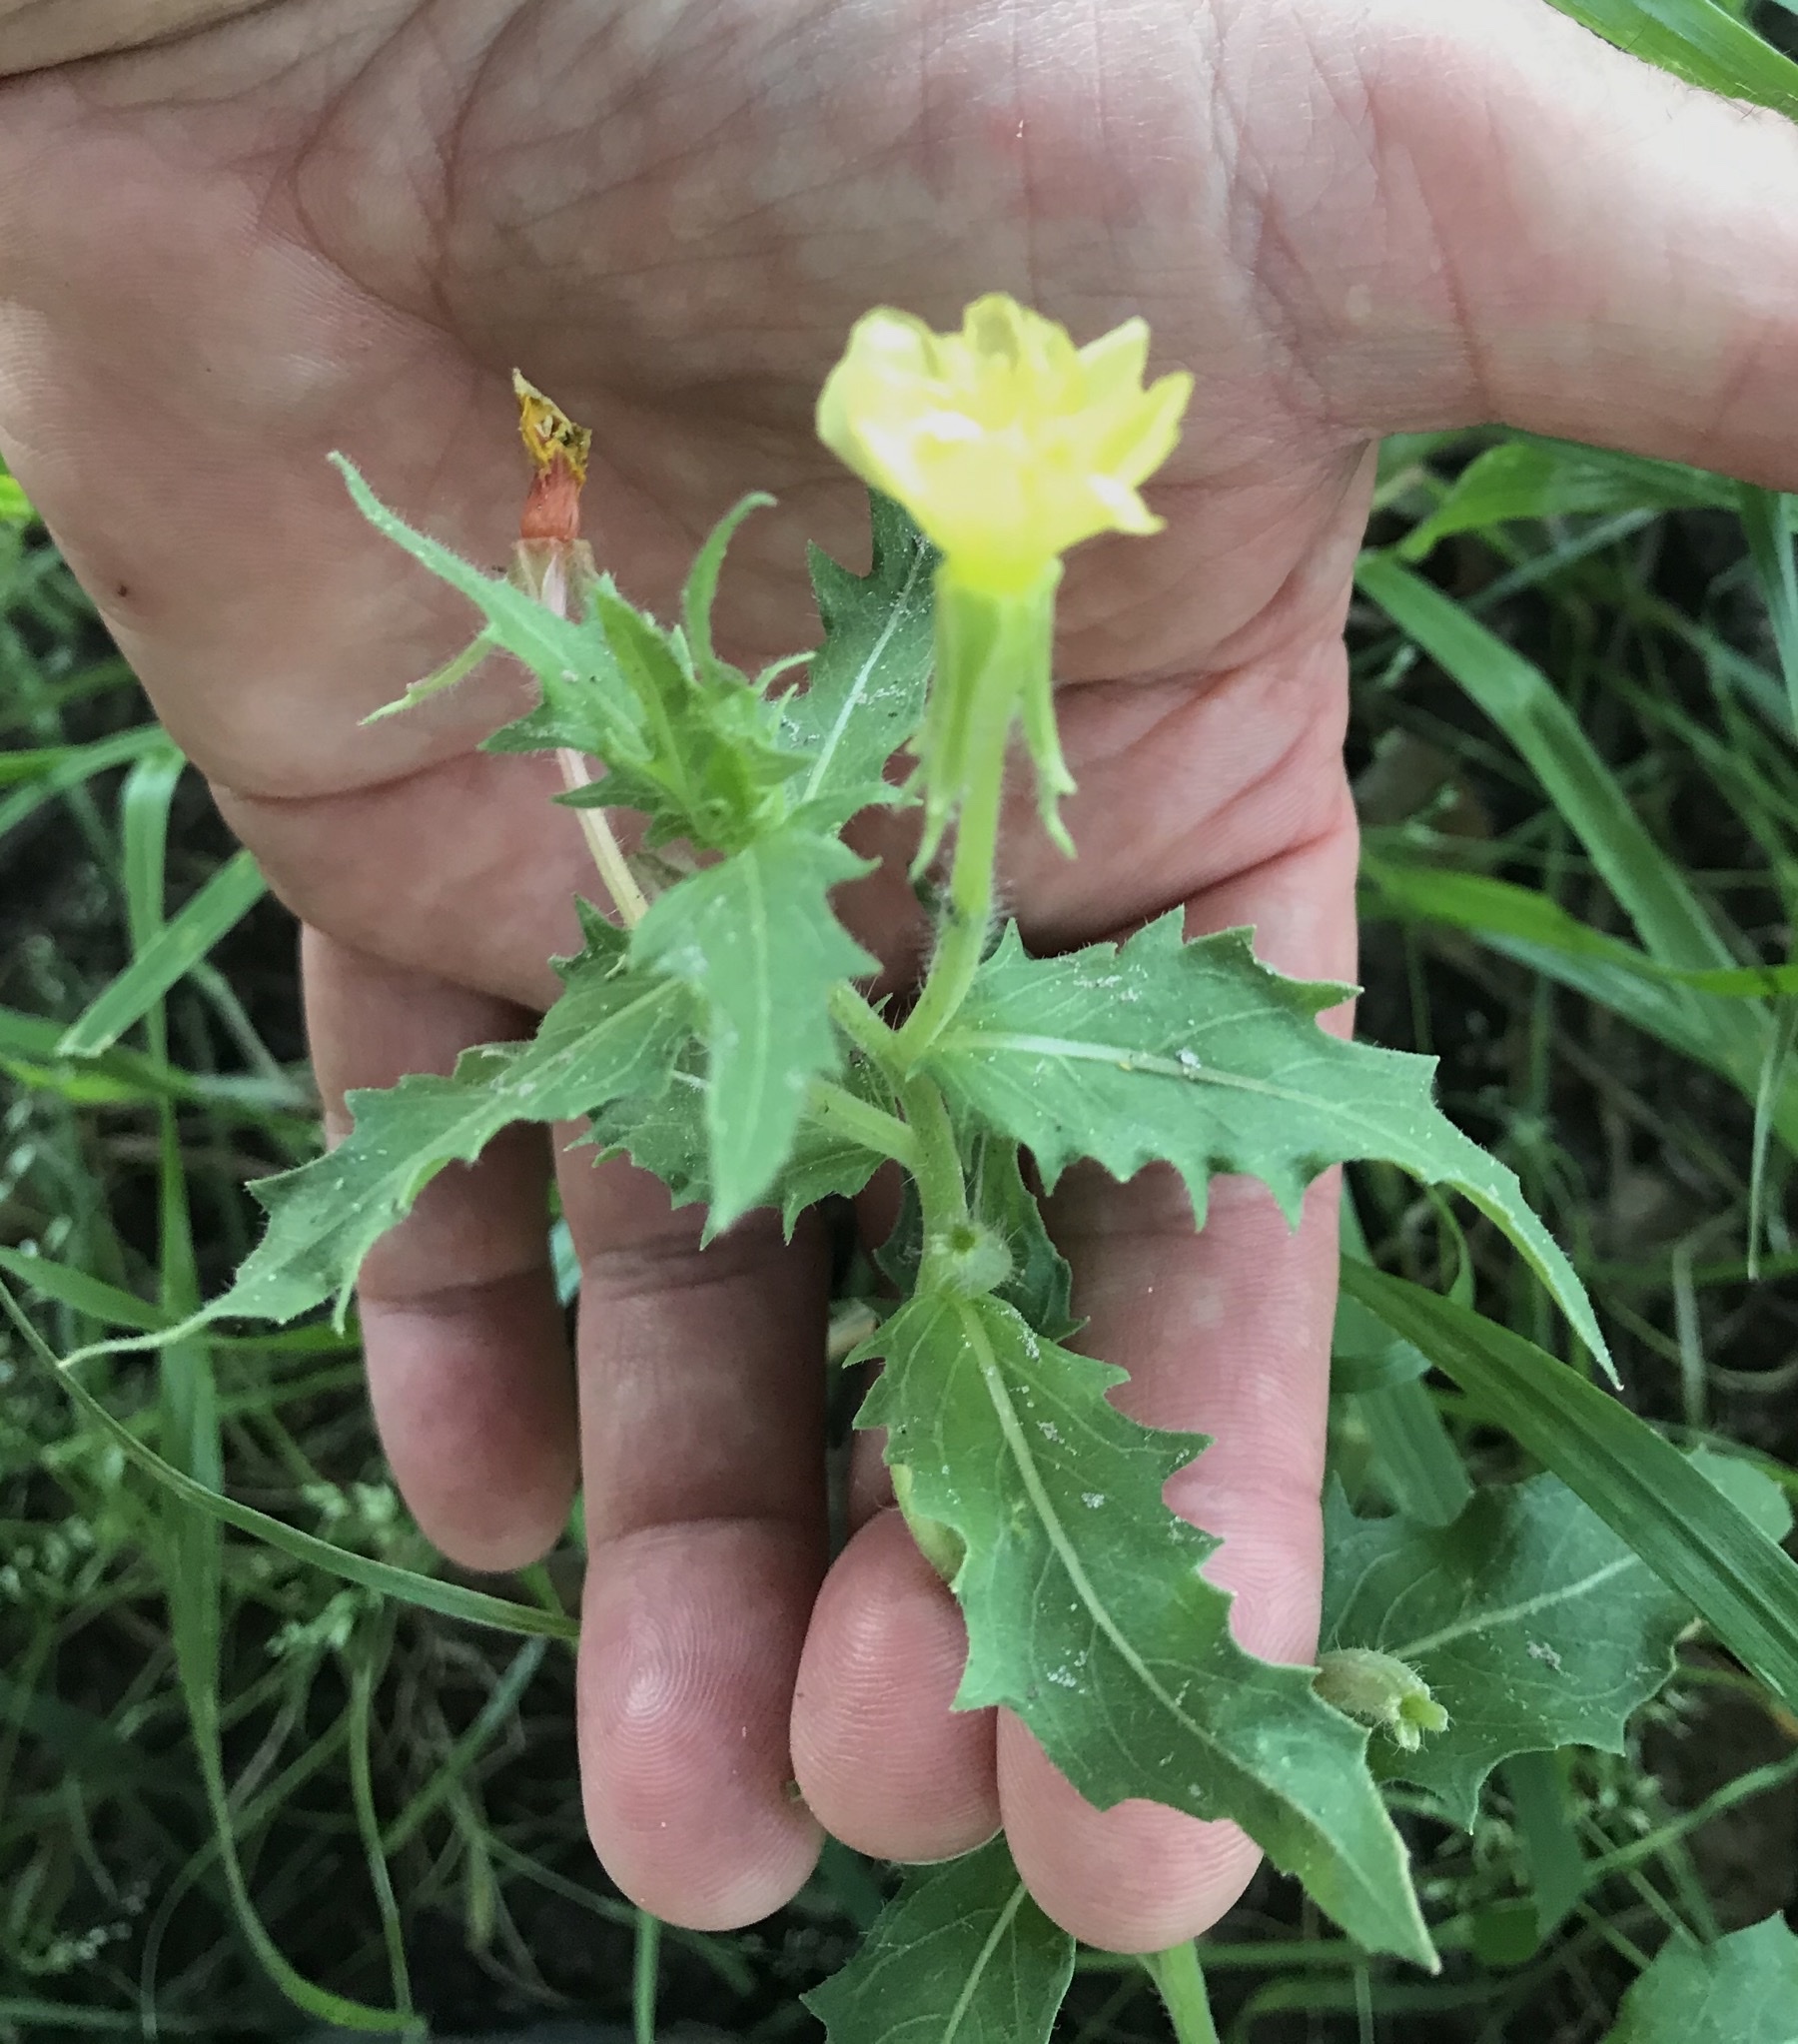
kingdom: Plantae
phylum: Tracheophyta
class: Magnoliopsida
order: Myrtales
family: Onagraceae
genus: Oenothera
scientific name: Oenothera laciniata
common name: Cut-leaved evening-primrose
